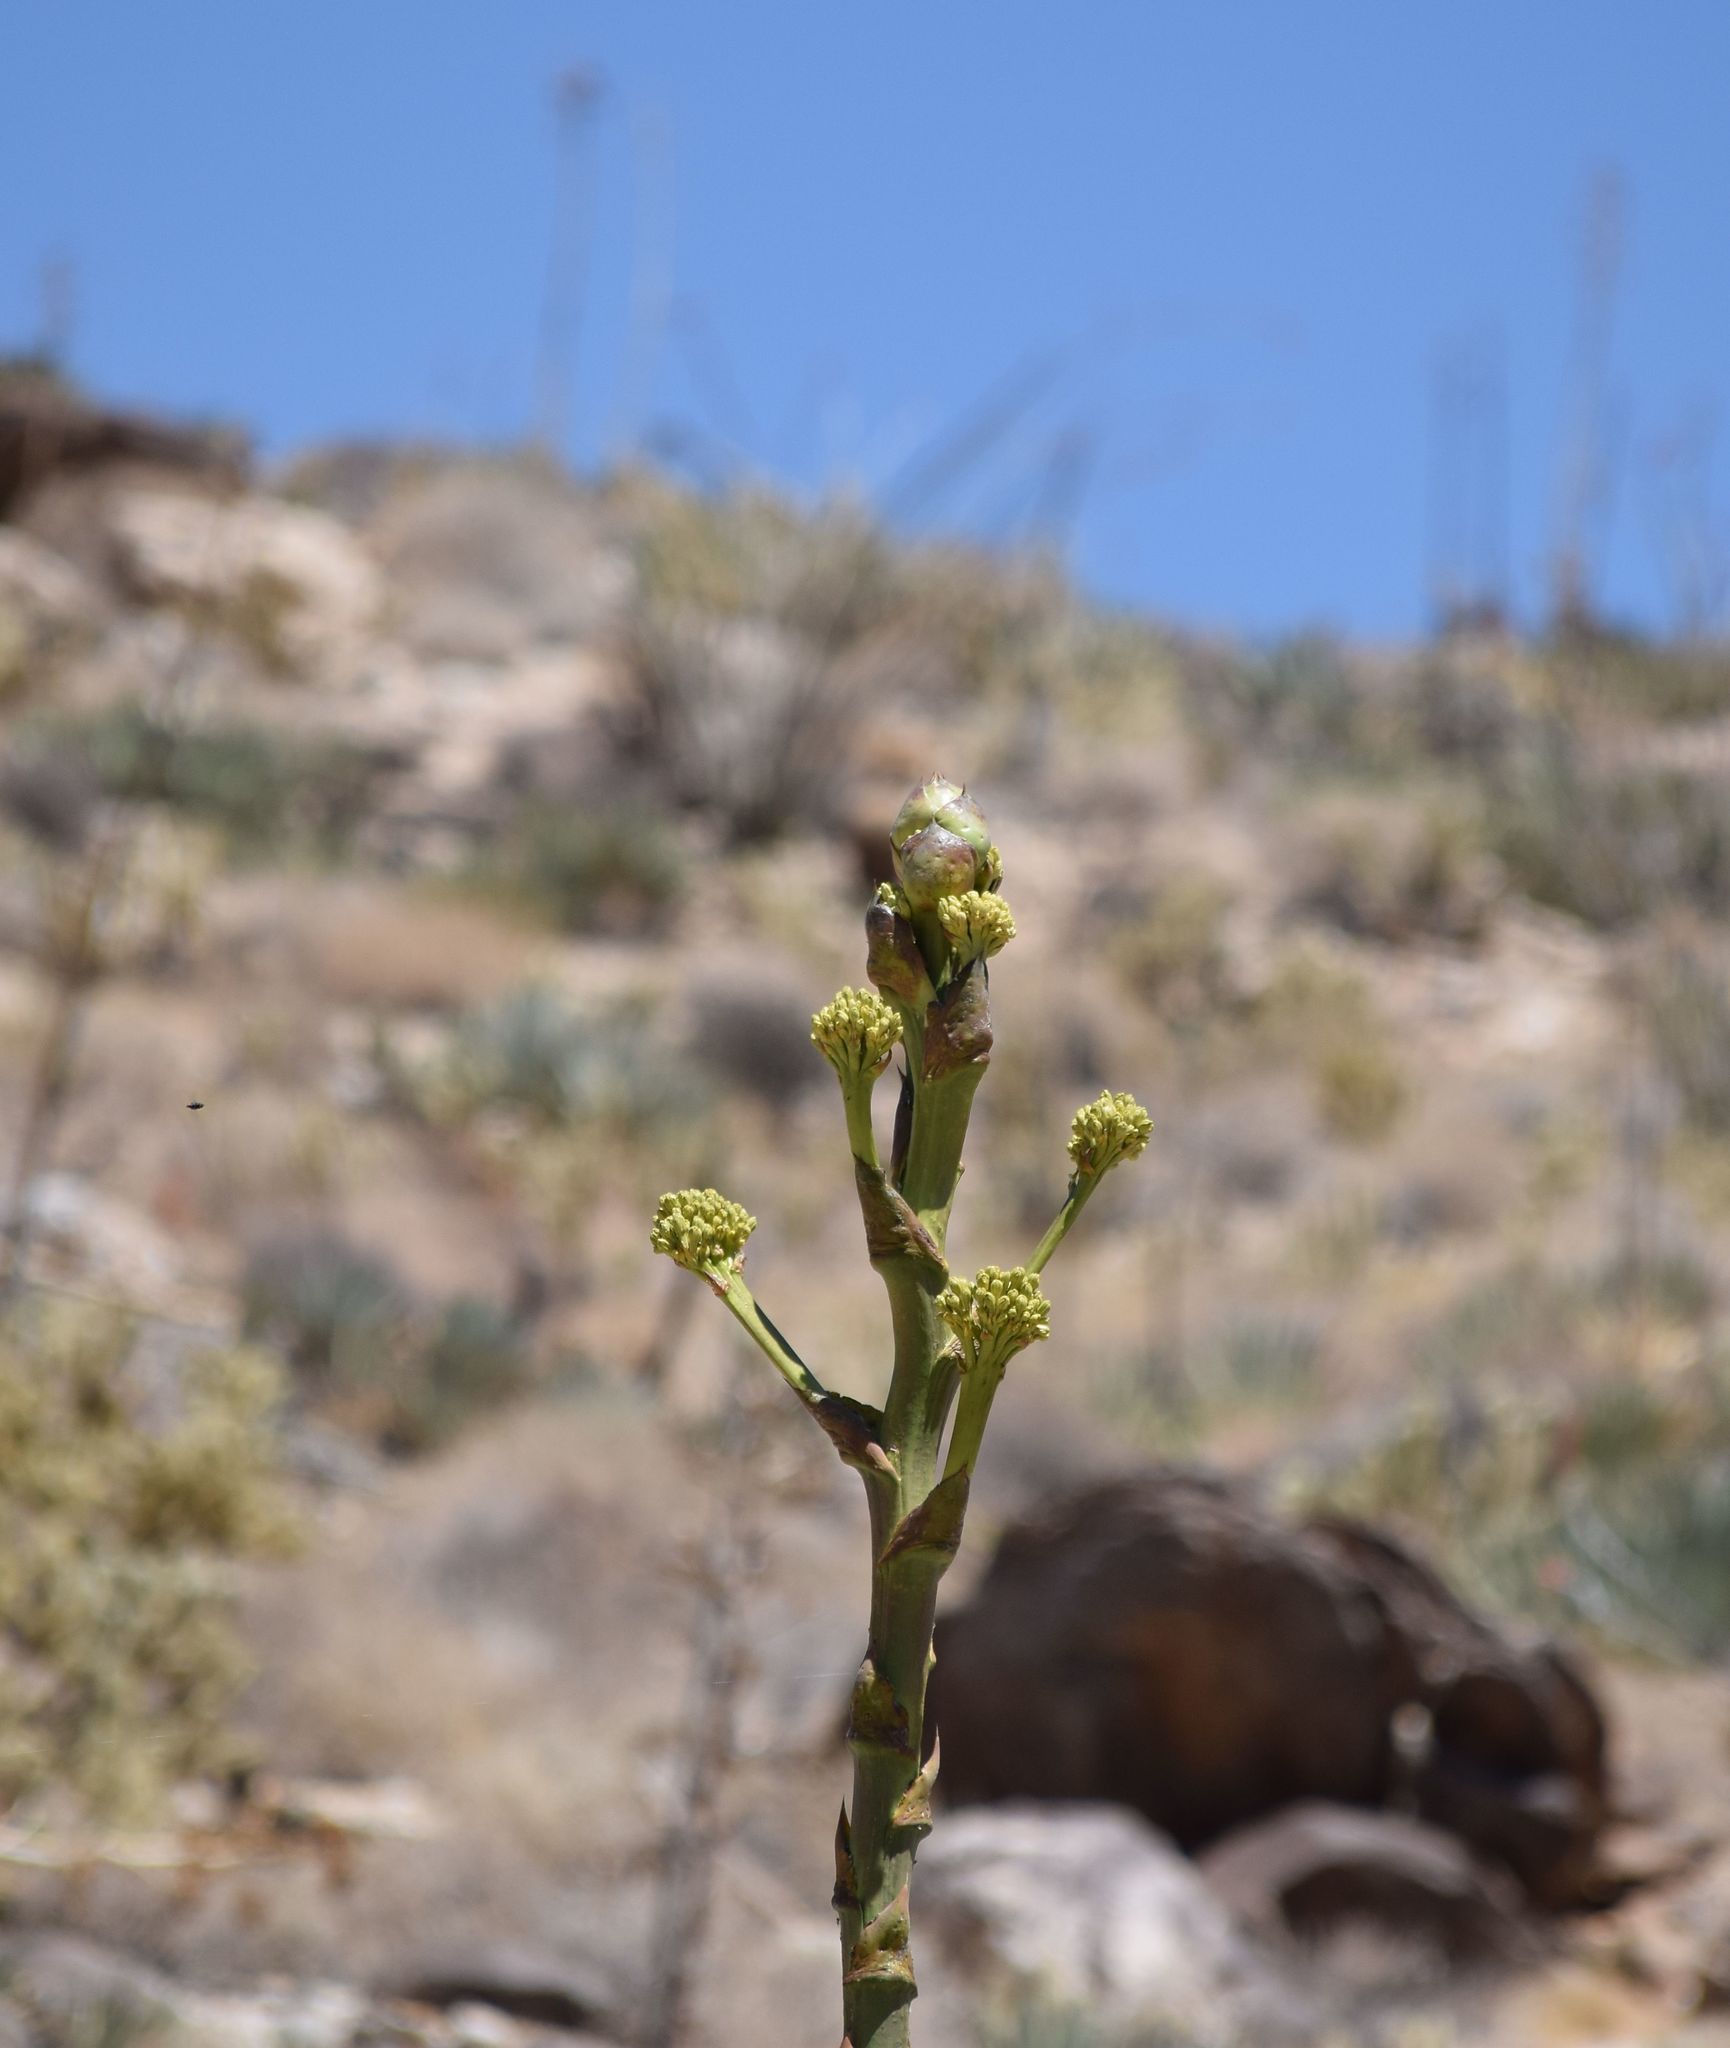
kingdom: Plantae
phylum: Tracheophyta
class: Liliopsida
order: Asparagales
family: Asparagaceae
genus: Agave
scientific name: Agave deserti
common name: Desert agave
